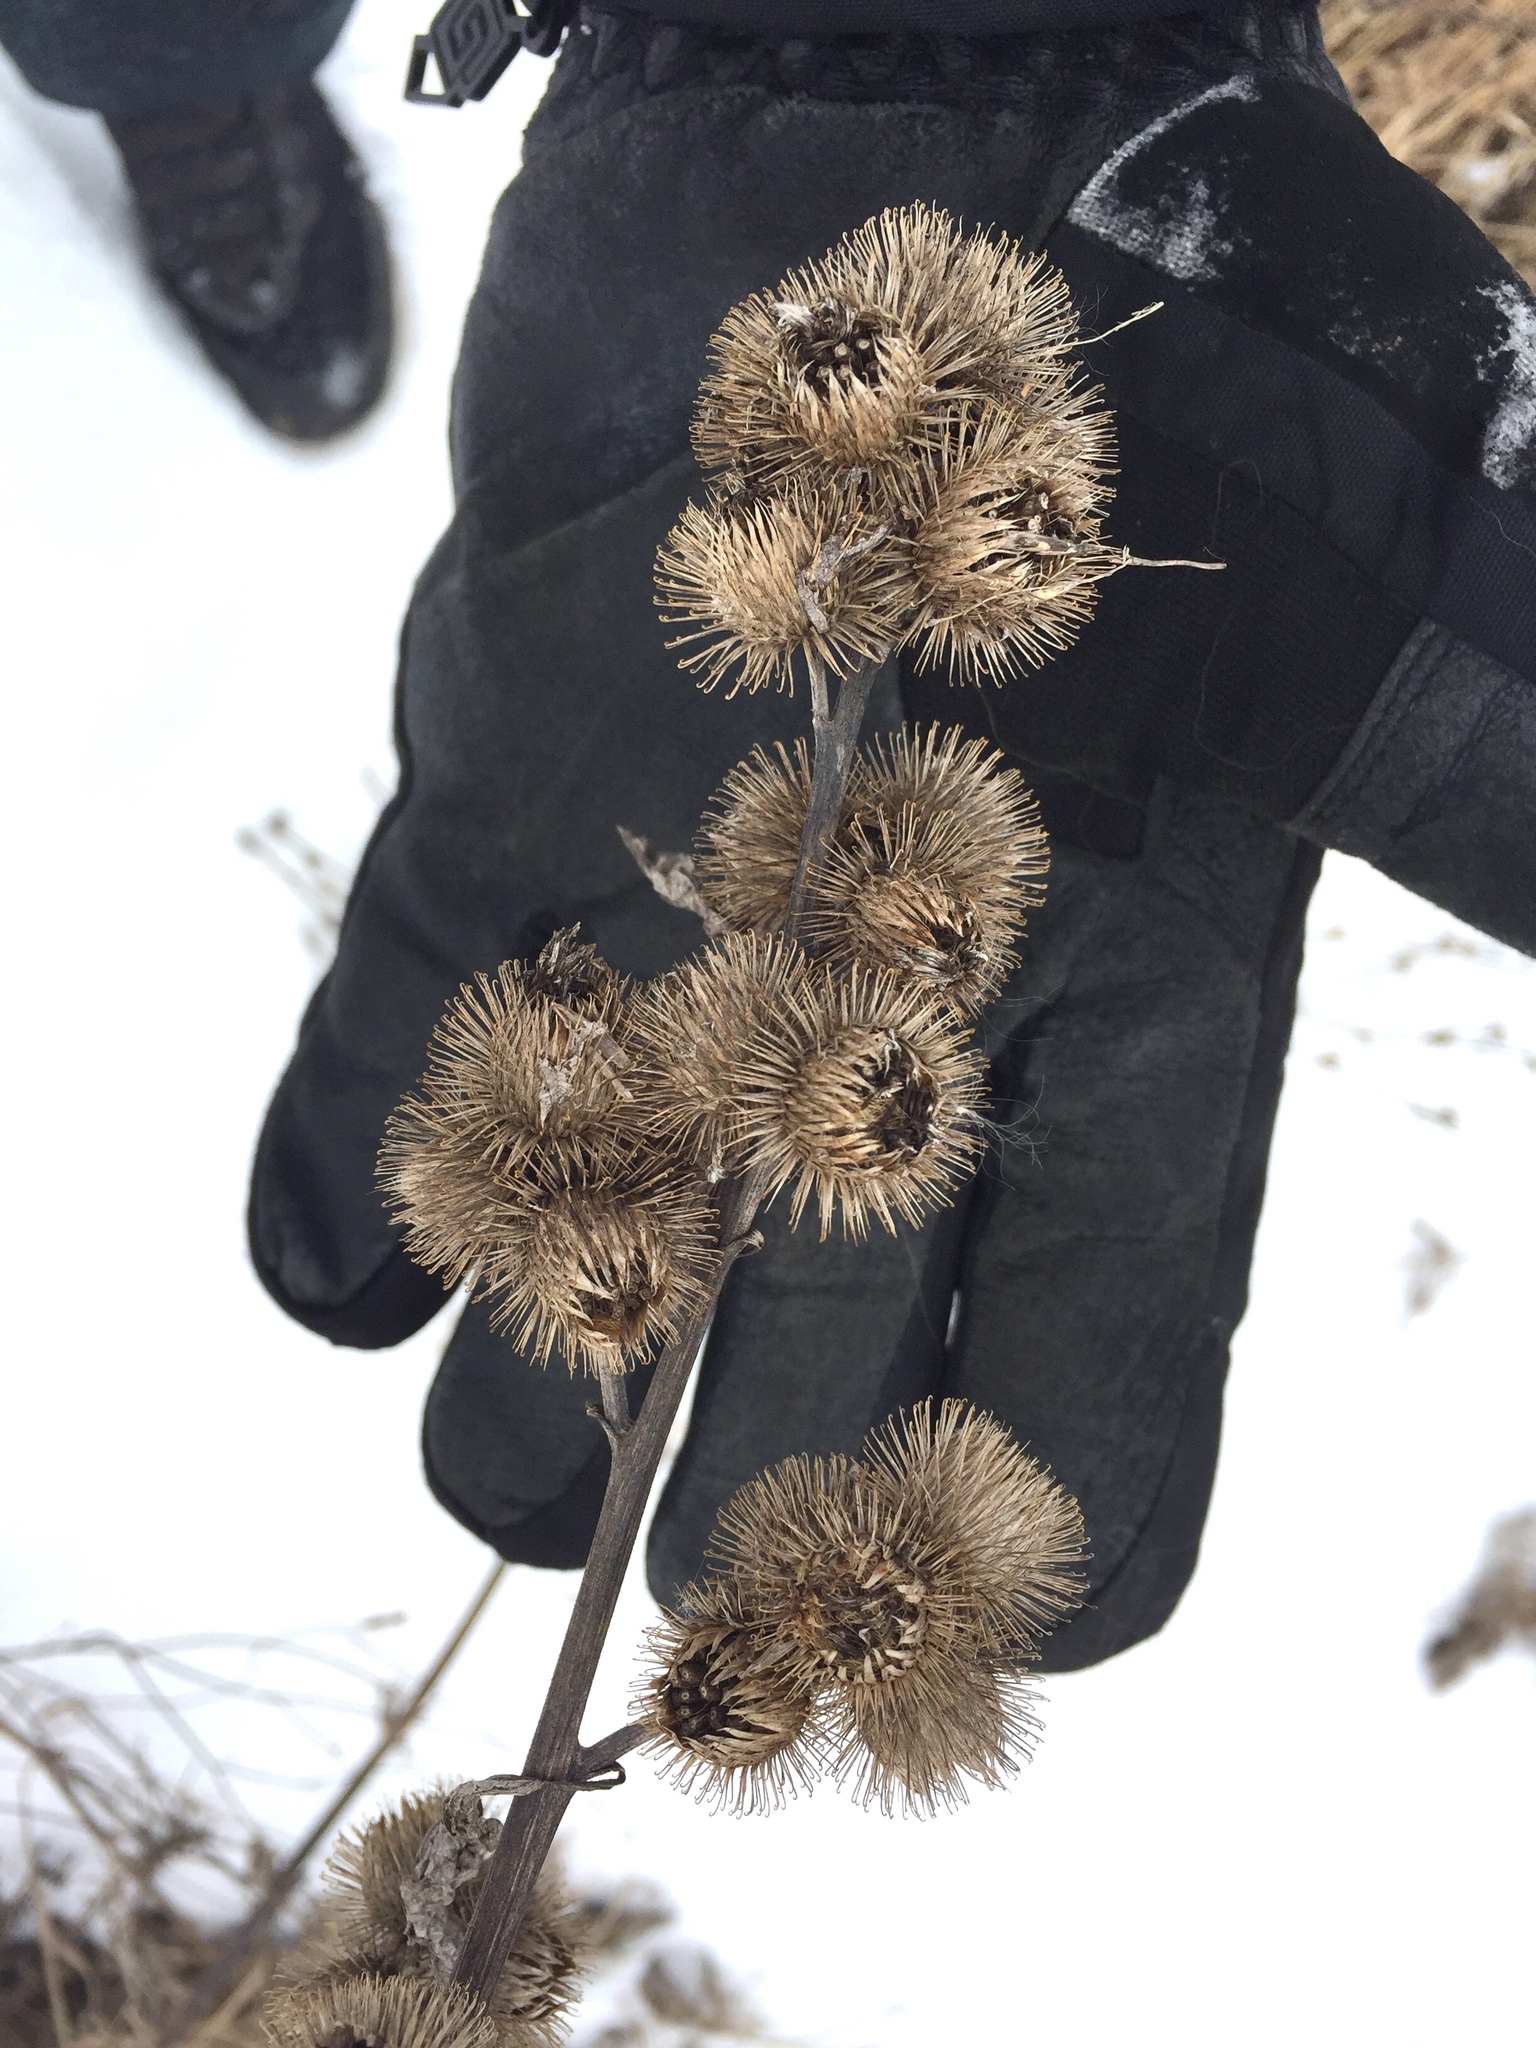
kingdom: Plantae
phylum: Tracheophyta
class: Magnoliopsida
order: Asterales
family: Asteraceae
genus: Arctium
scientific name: Arctium minus
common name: Lesser burdock
